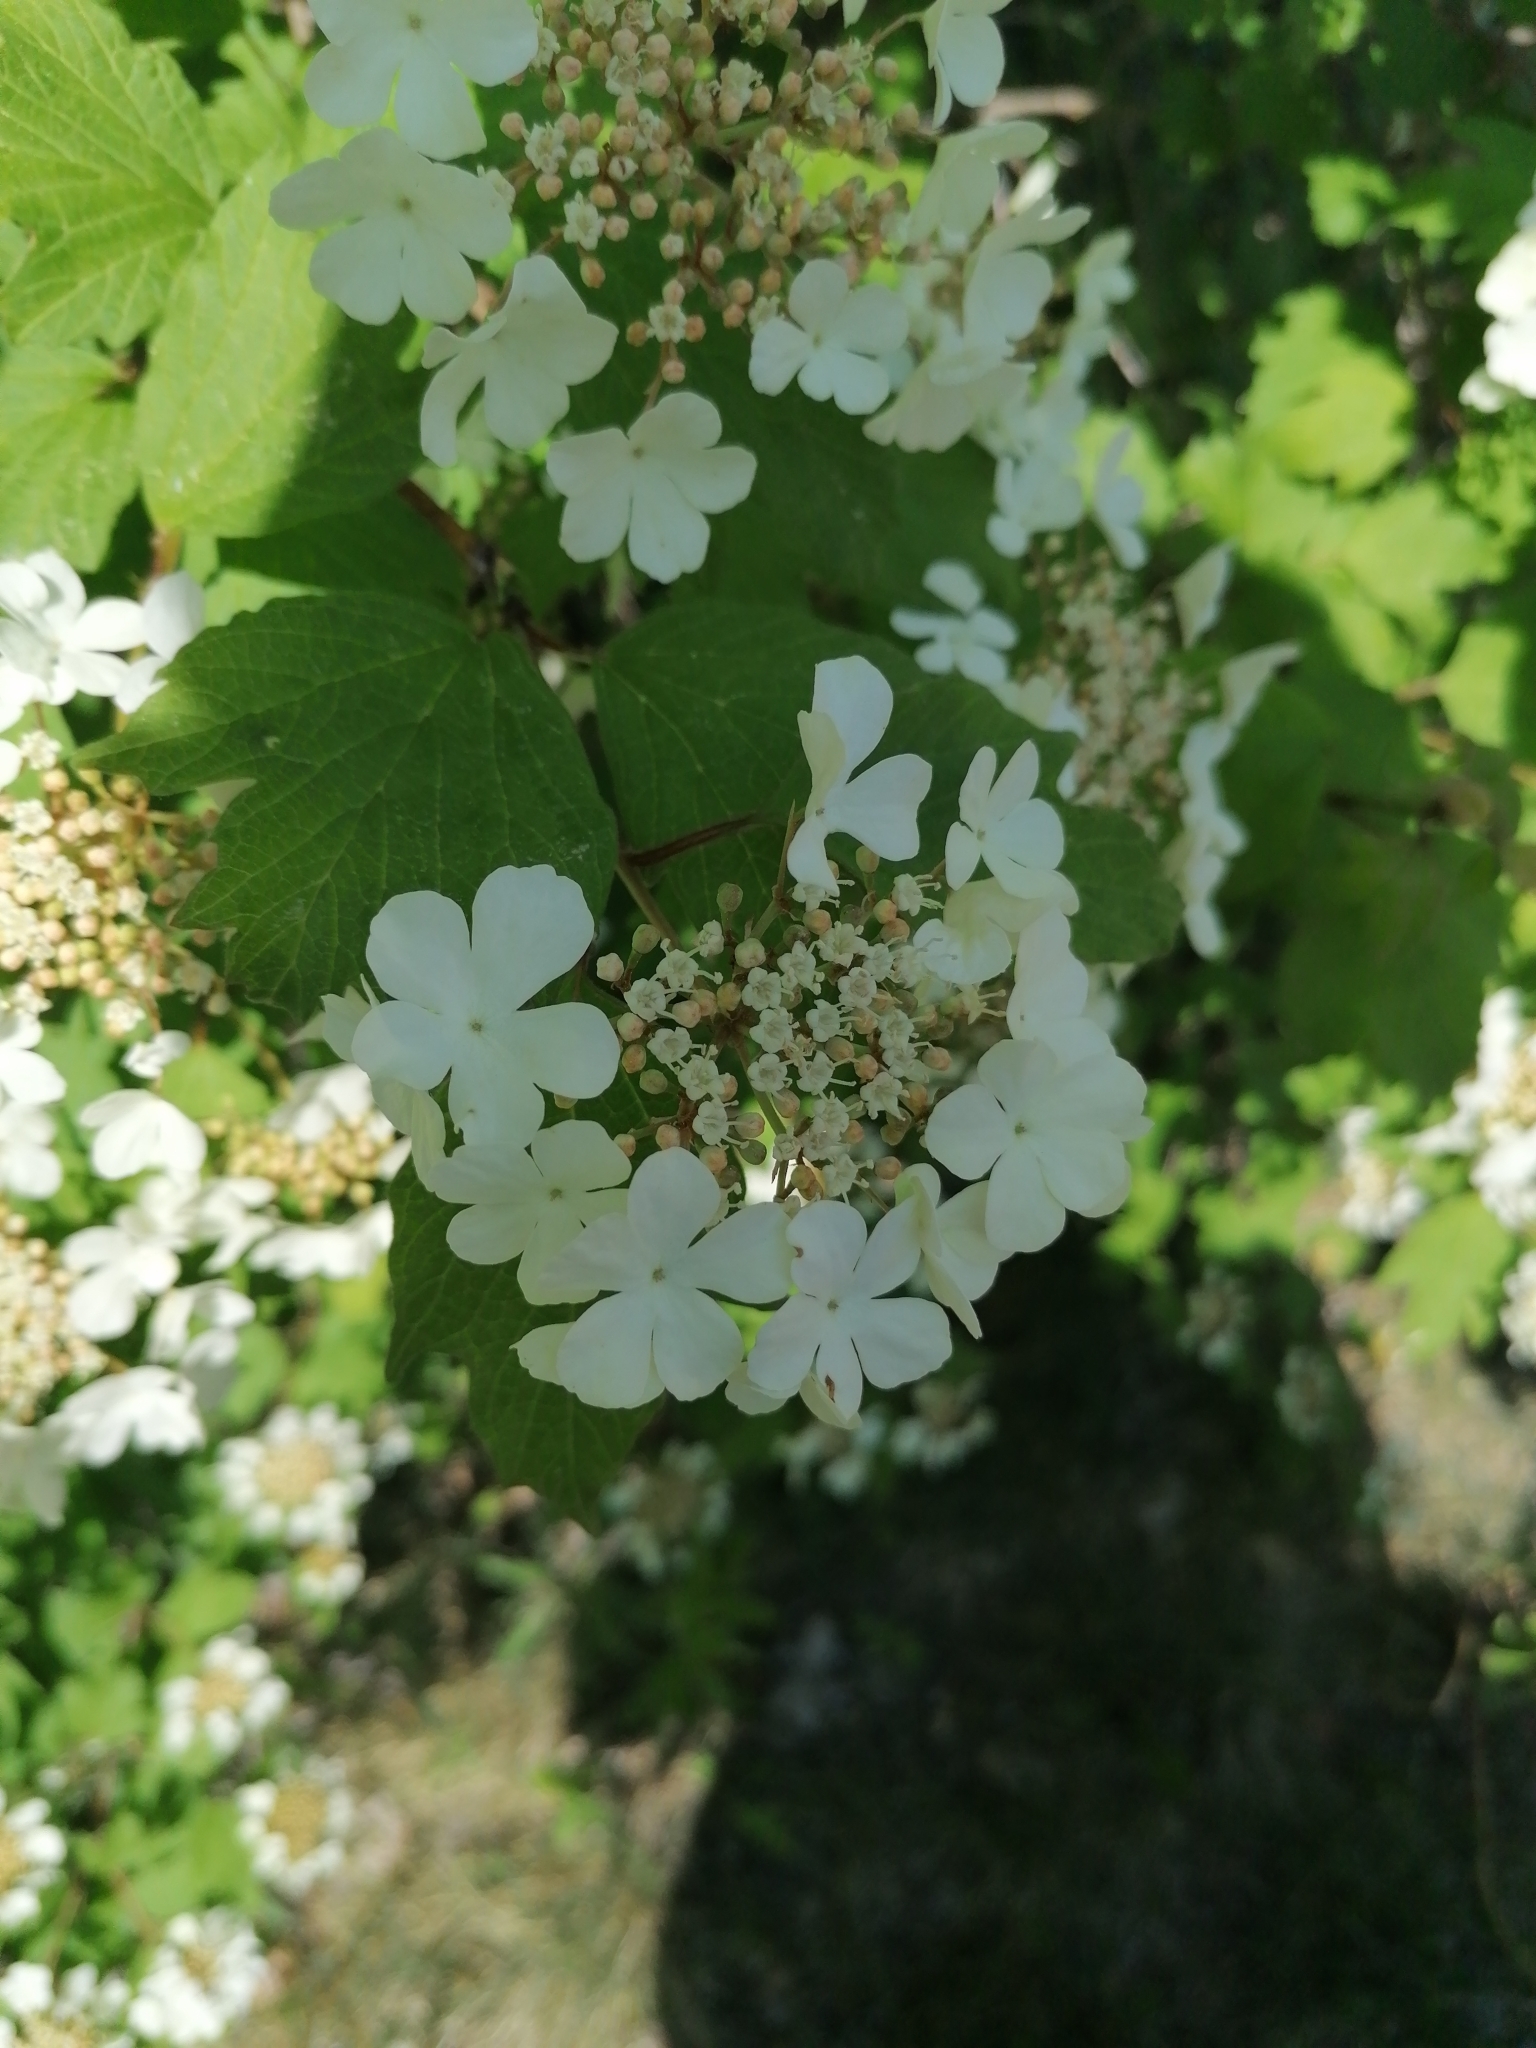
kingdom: Plantae
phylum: Tracheophyta
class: Magnoliopsida
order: Dipsacales
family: Viburnaceae
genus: Viburnum
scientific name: Viburnum opulus
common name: Guelder-rose
